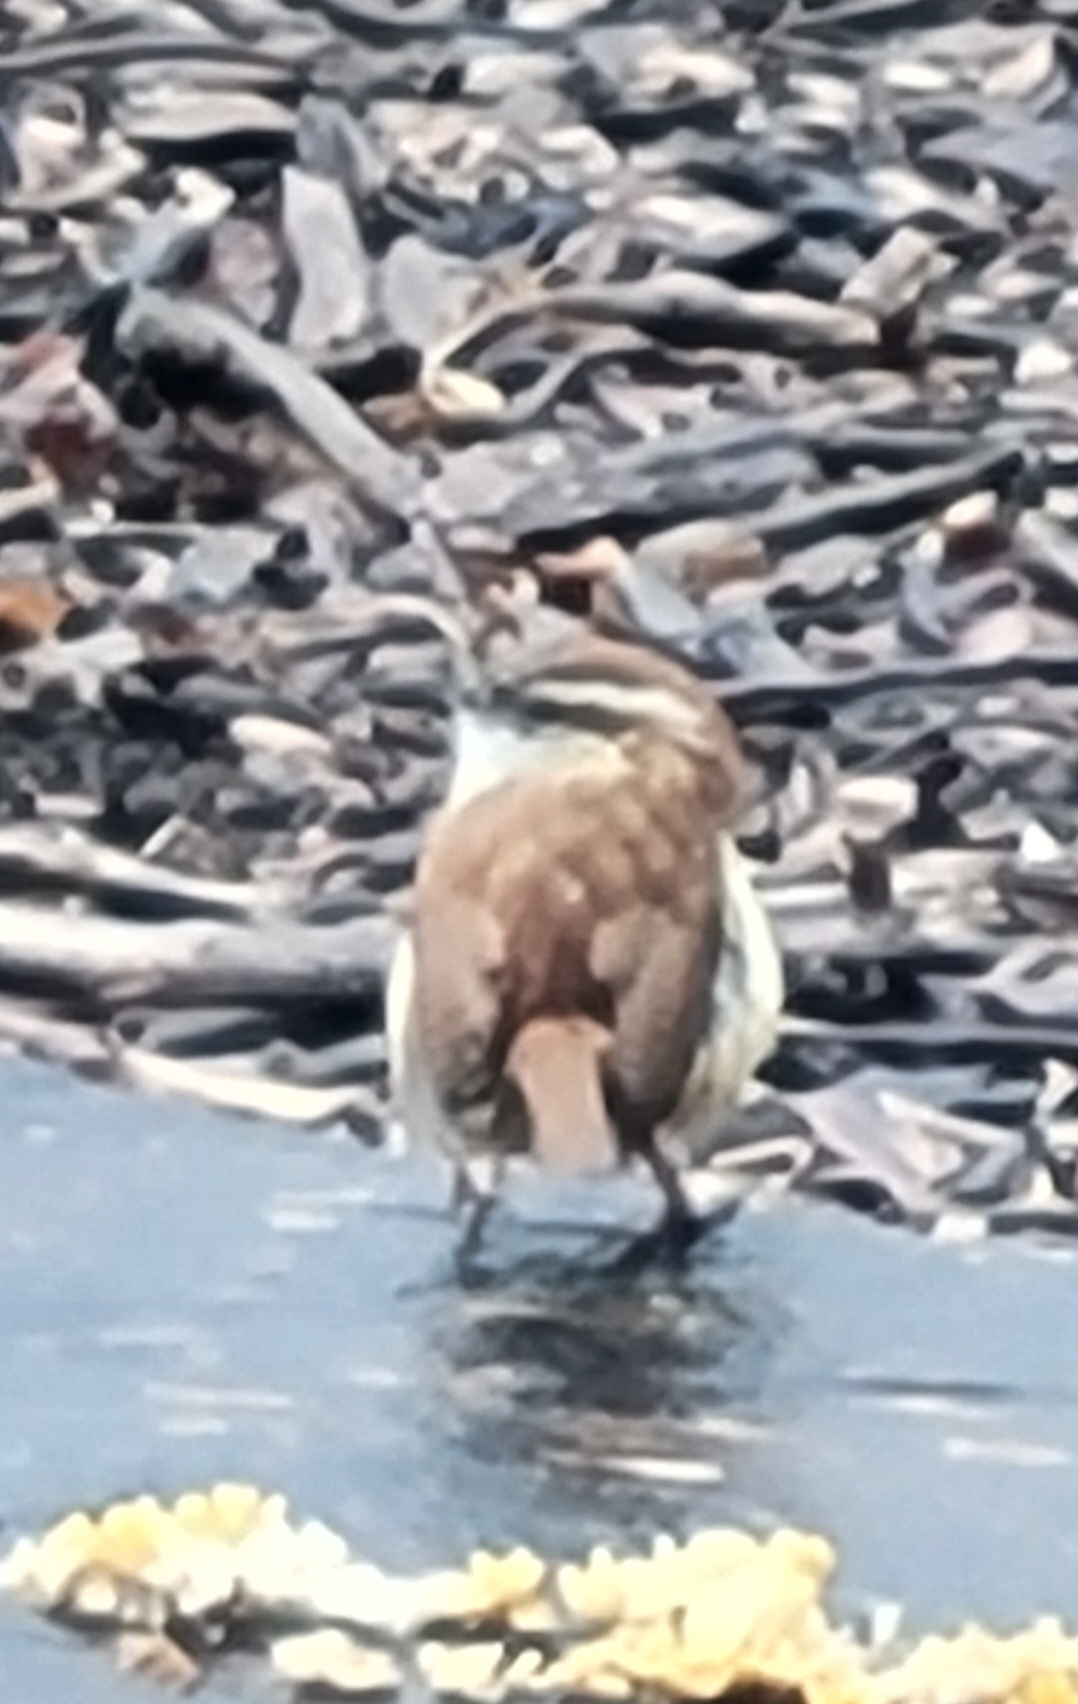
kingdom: Animalia
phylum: Chordata
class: Aves
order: Passeriformes
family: Troglodytidae
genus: Thryothorus
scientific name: Thryothorus ludovicianus
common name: Carolina wren
